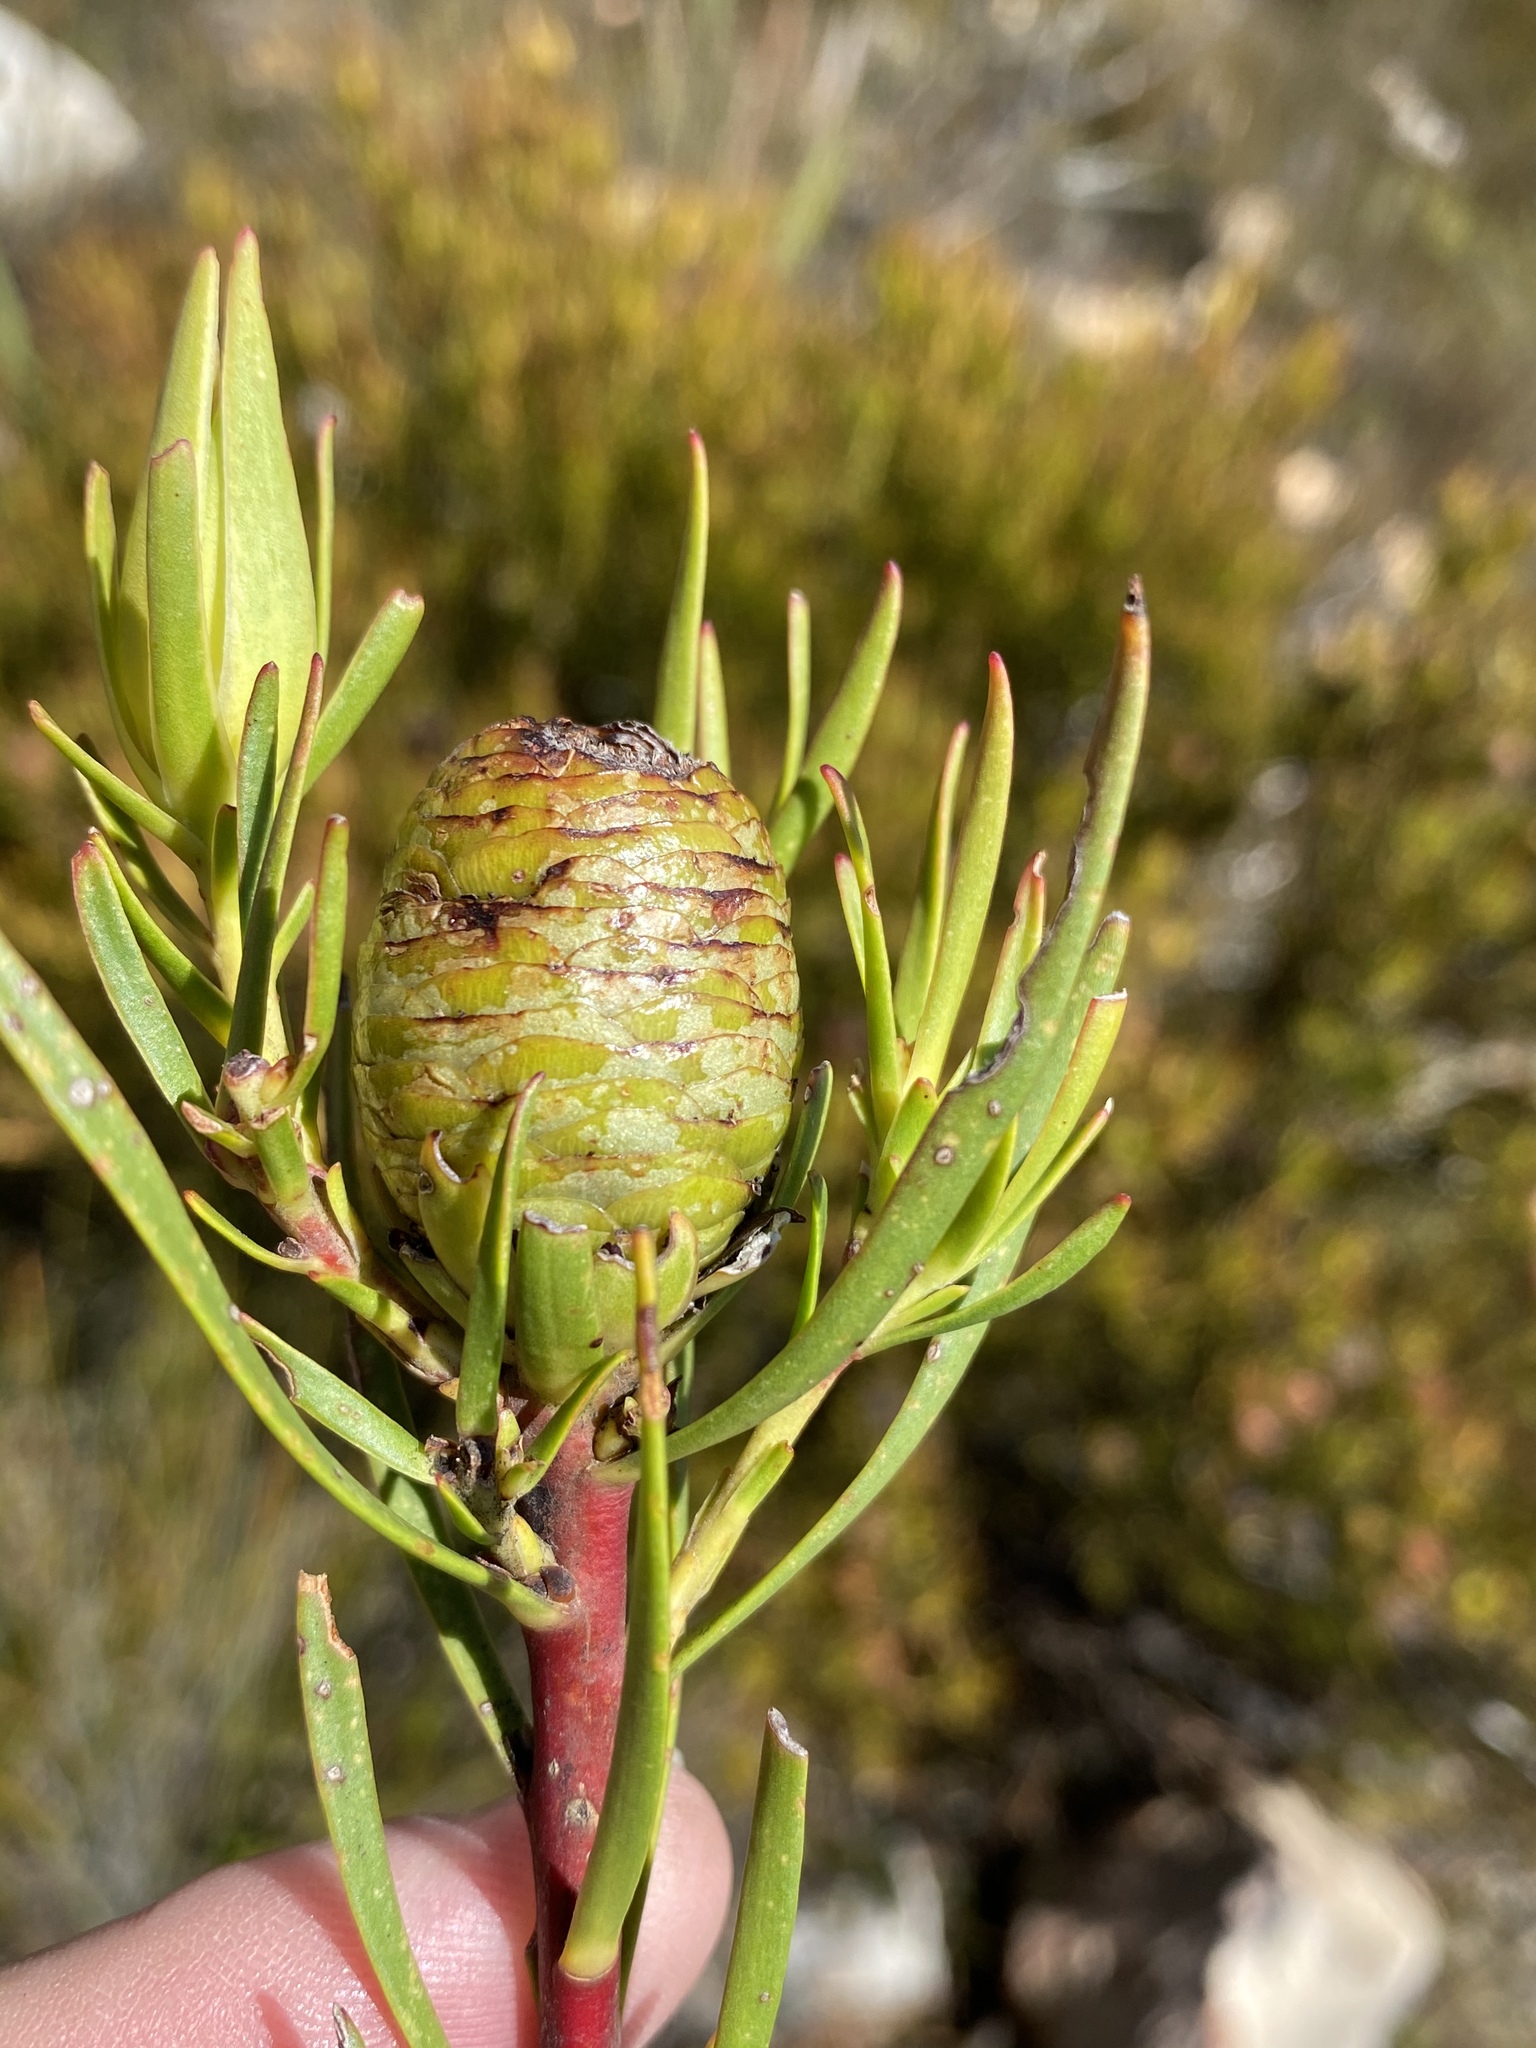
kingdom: Plantae
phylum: Tracheophyta
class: Magnoliopsida
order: Proteales
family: Proteaceae
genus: Leucadendron
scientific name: Leucadendron spissifolium
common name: Spear-leaf conebush
